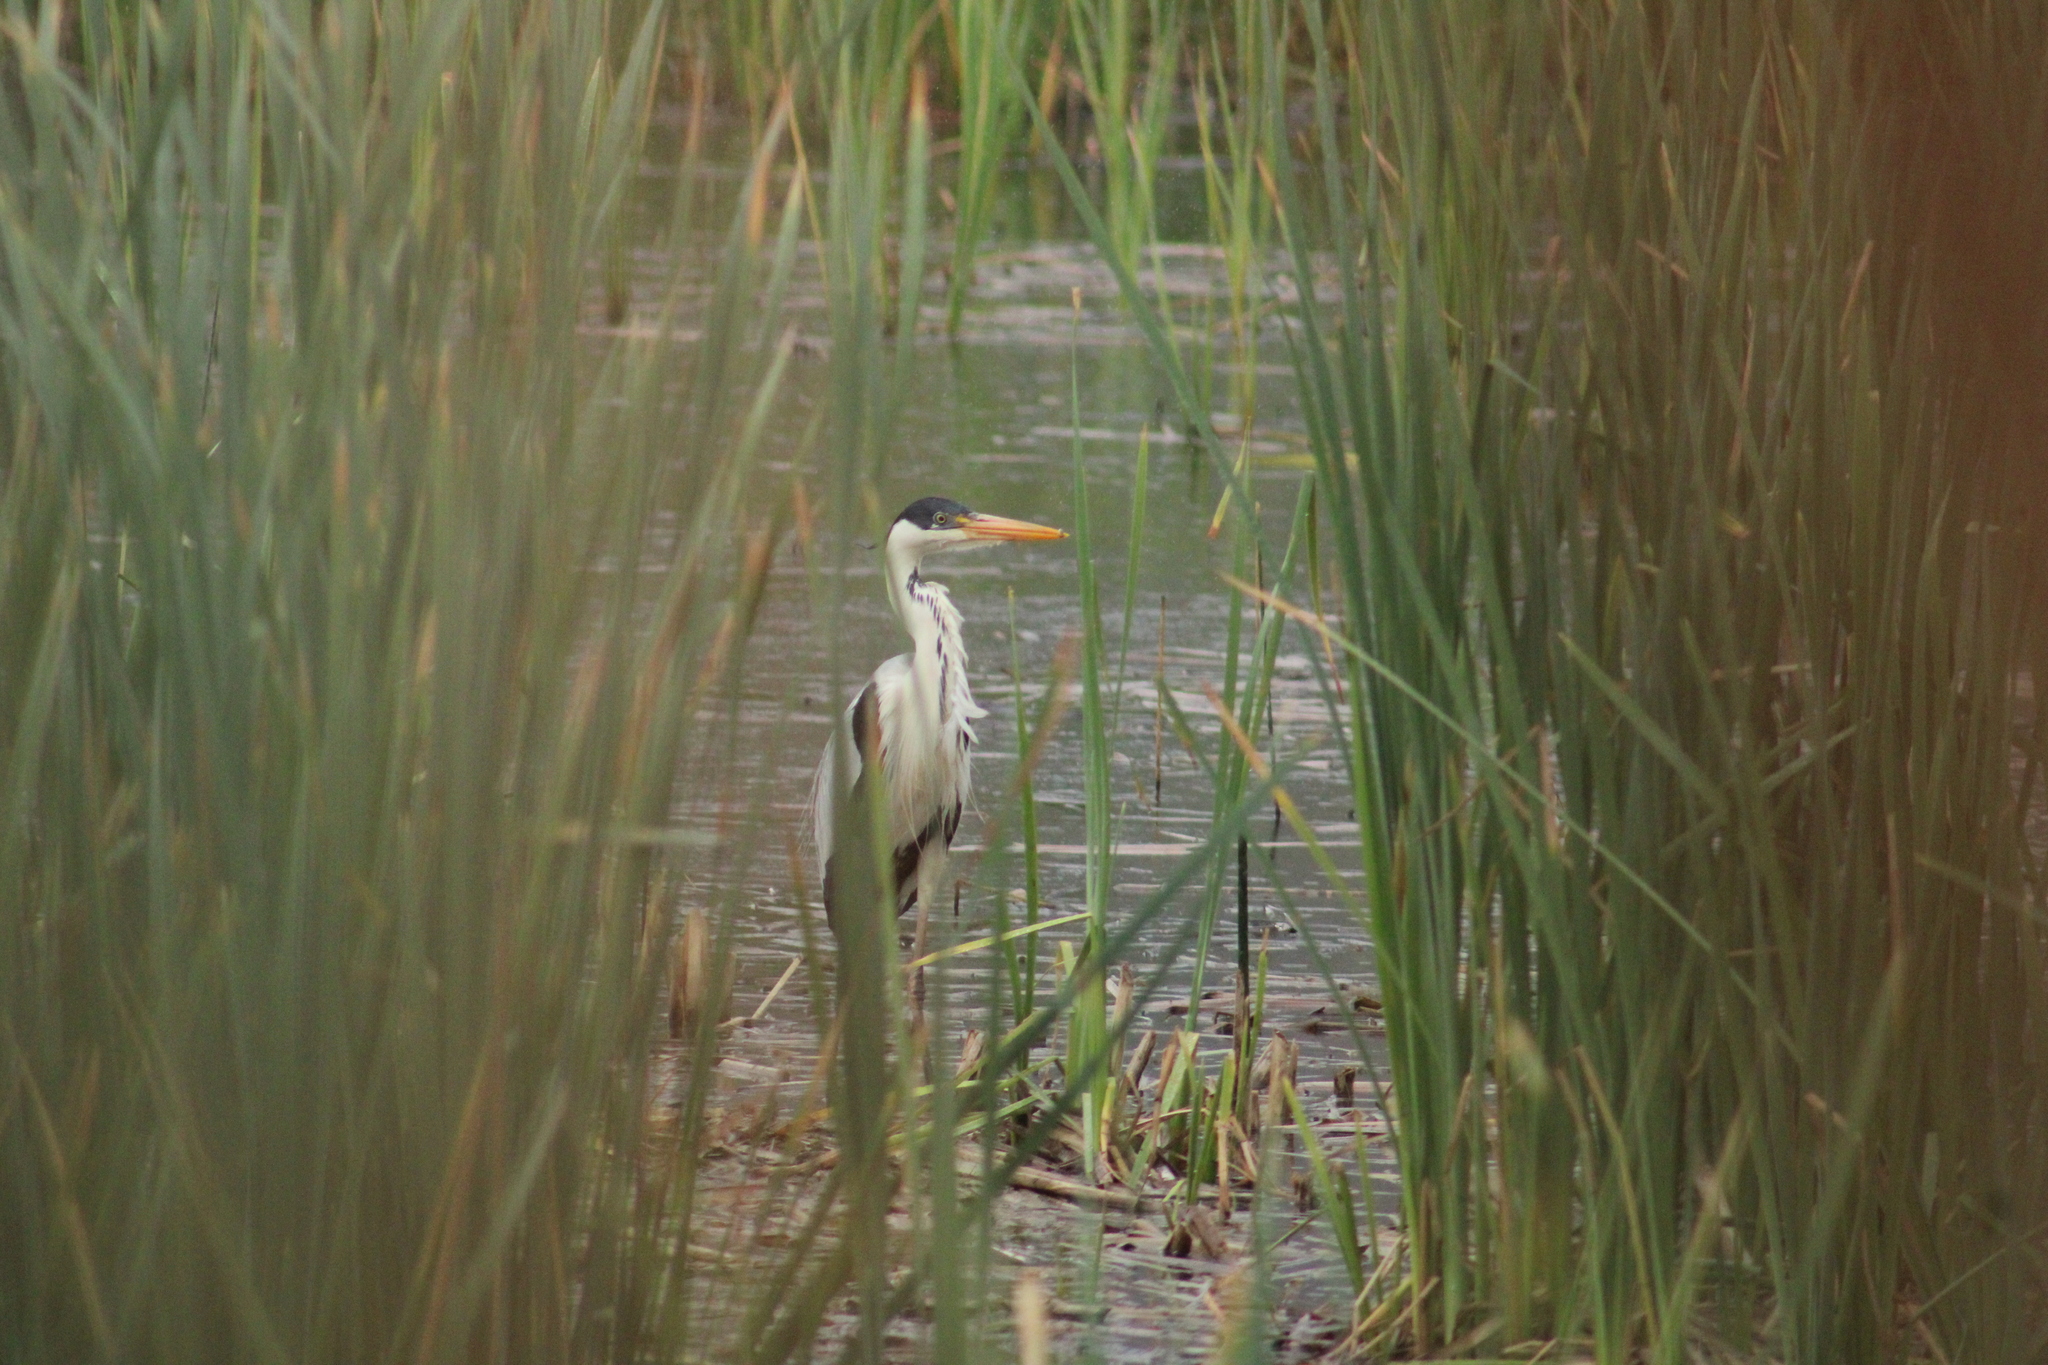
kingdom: Animalia
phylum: Chordata
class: Aves
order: Pelecaniformes
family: Ardeidae
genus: Ardea
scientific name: Ardea cocoi
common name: Cocoi heron
